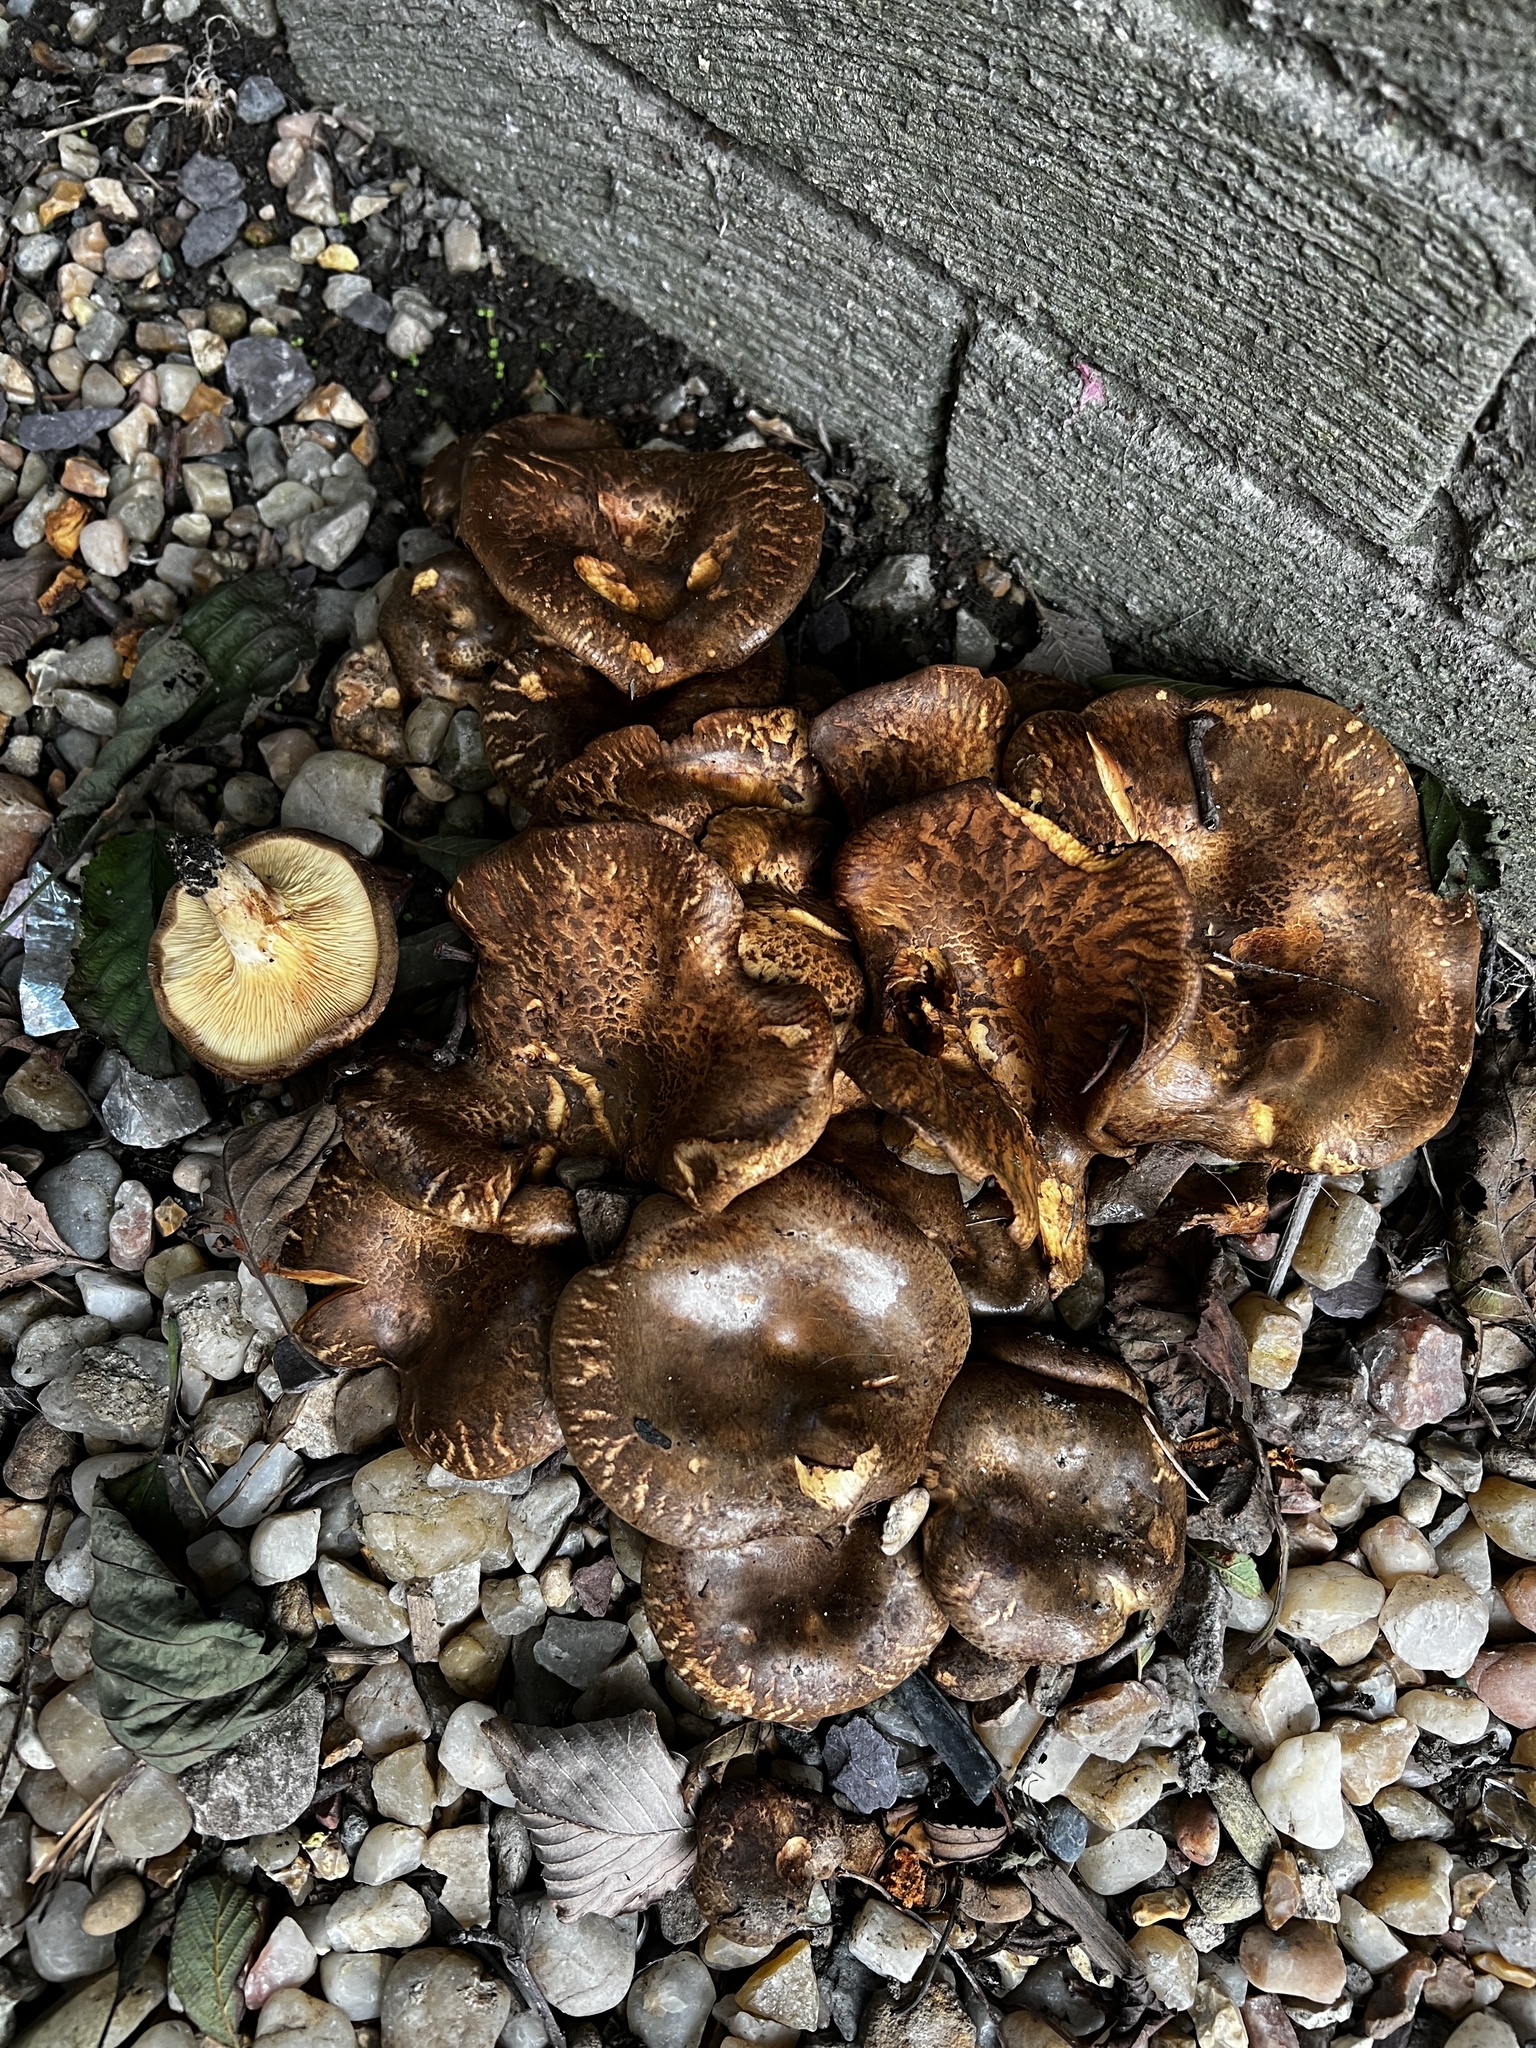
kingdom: Fungi
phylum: Basidiomycota
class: Agaricomycetes
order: Boletales
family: Paxillaceae
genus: Paxillus
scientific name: Paxillus adelphus
